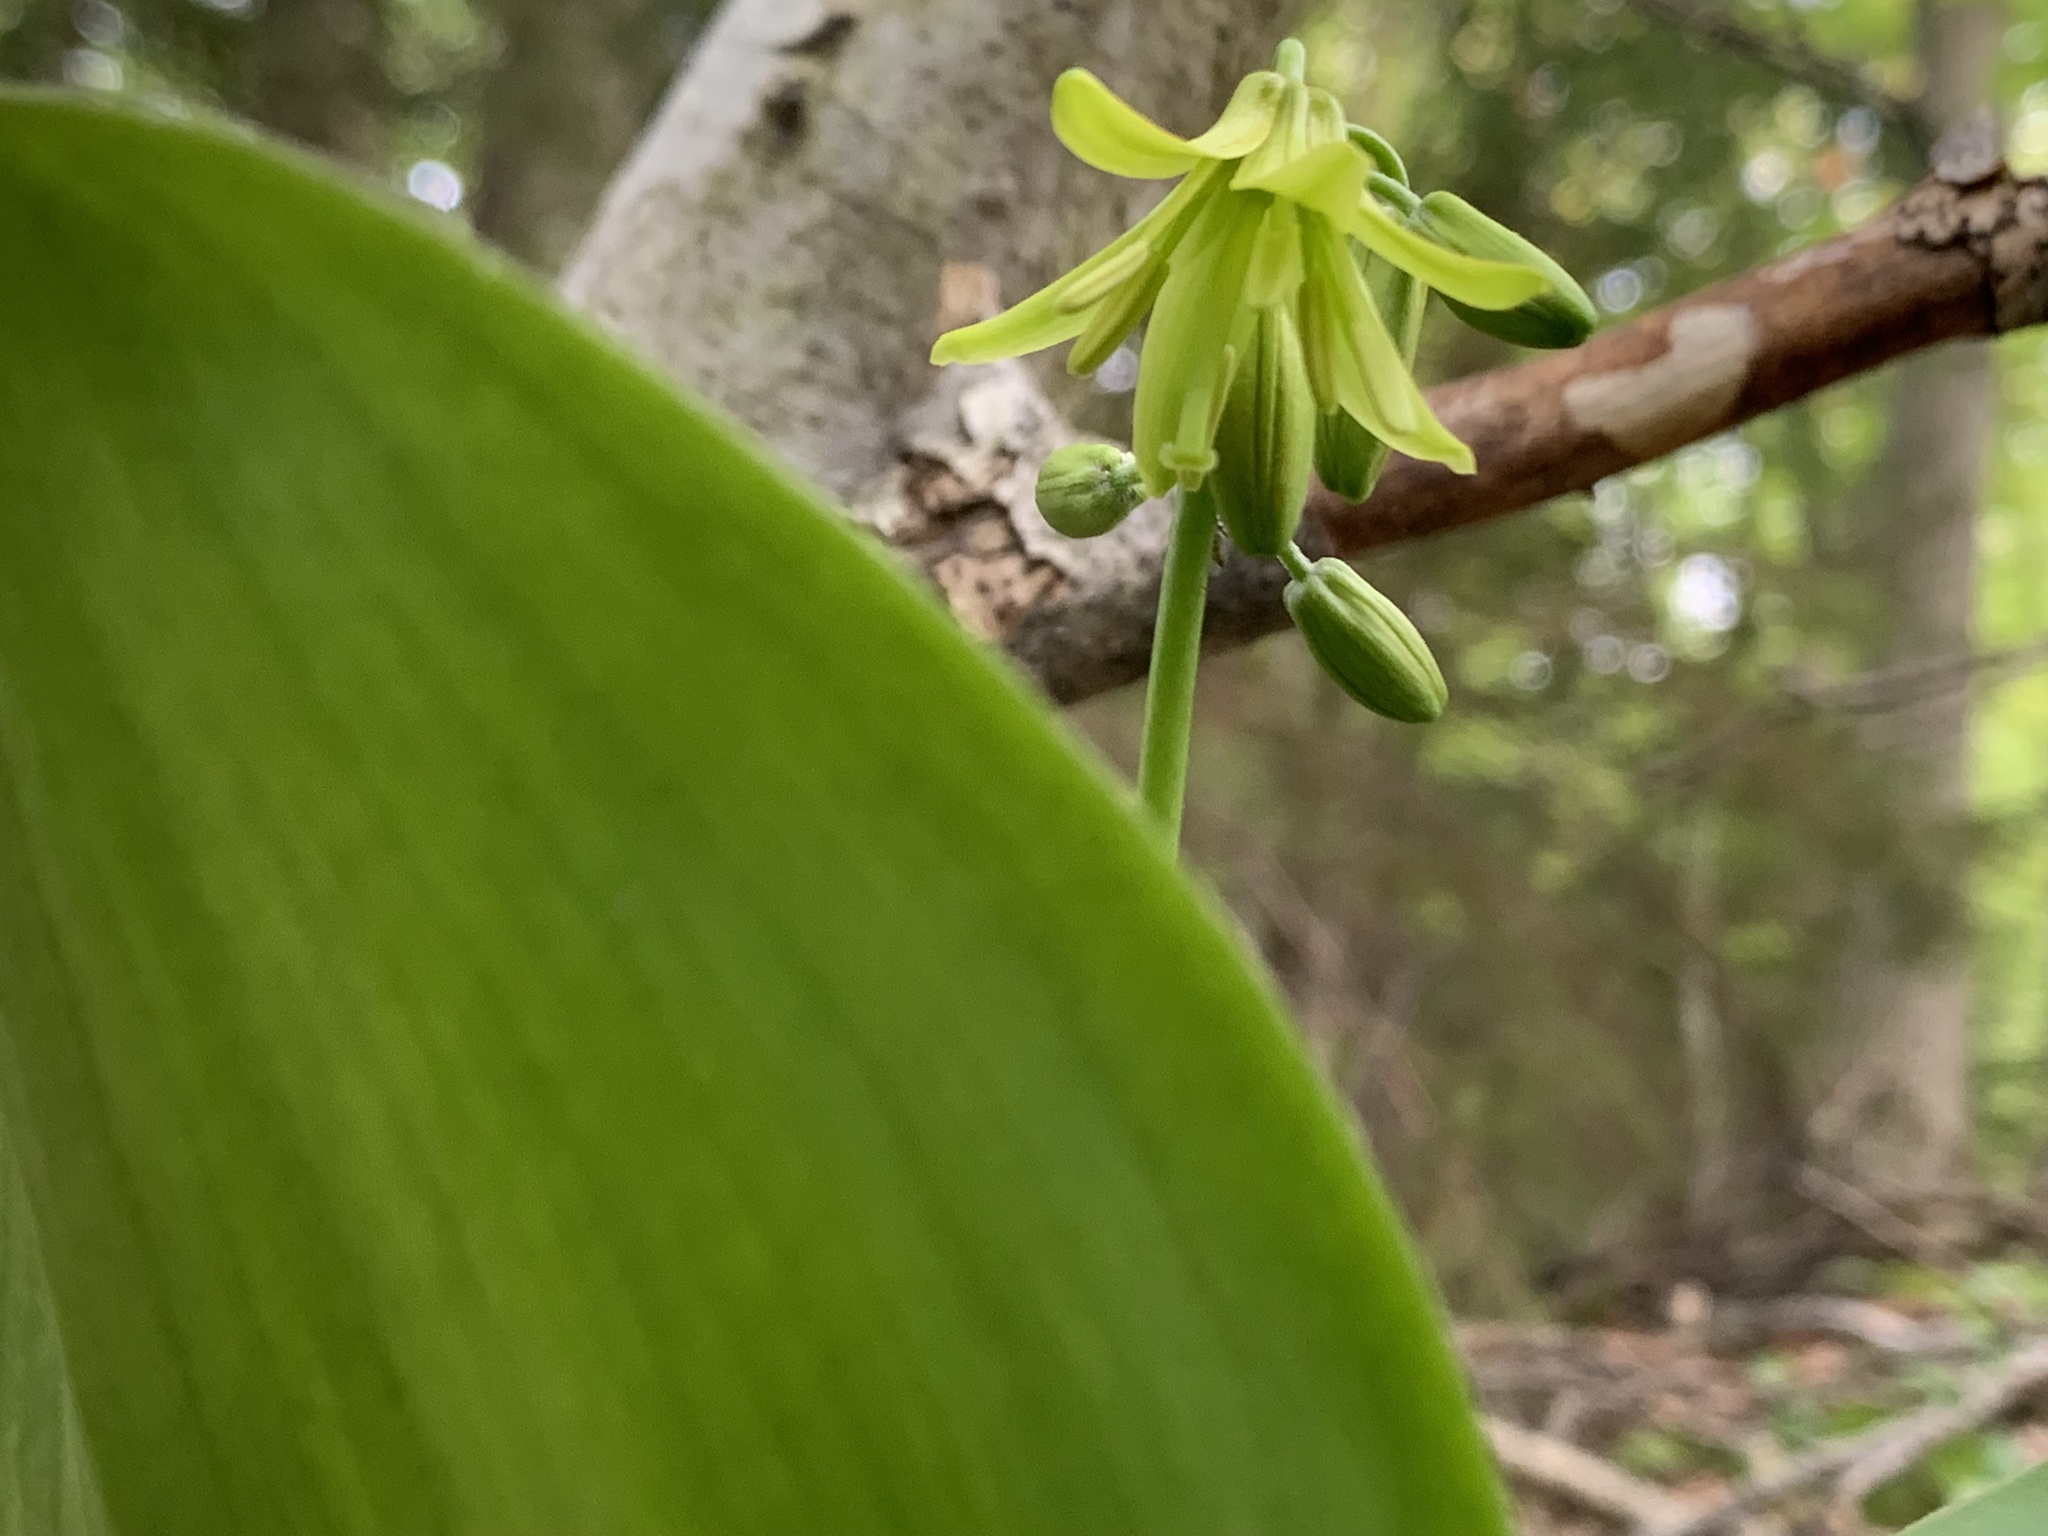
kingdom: Plantae
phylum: Tracheophyta
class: Liliopsida
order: Liliales
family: Liliaceae
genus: Clintonia
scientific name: Clintonia borealis
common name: Yellow clintonia
